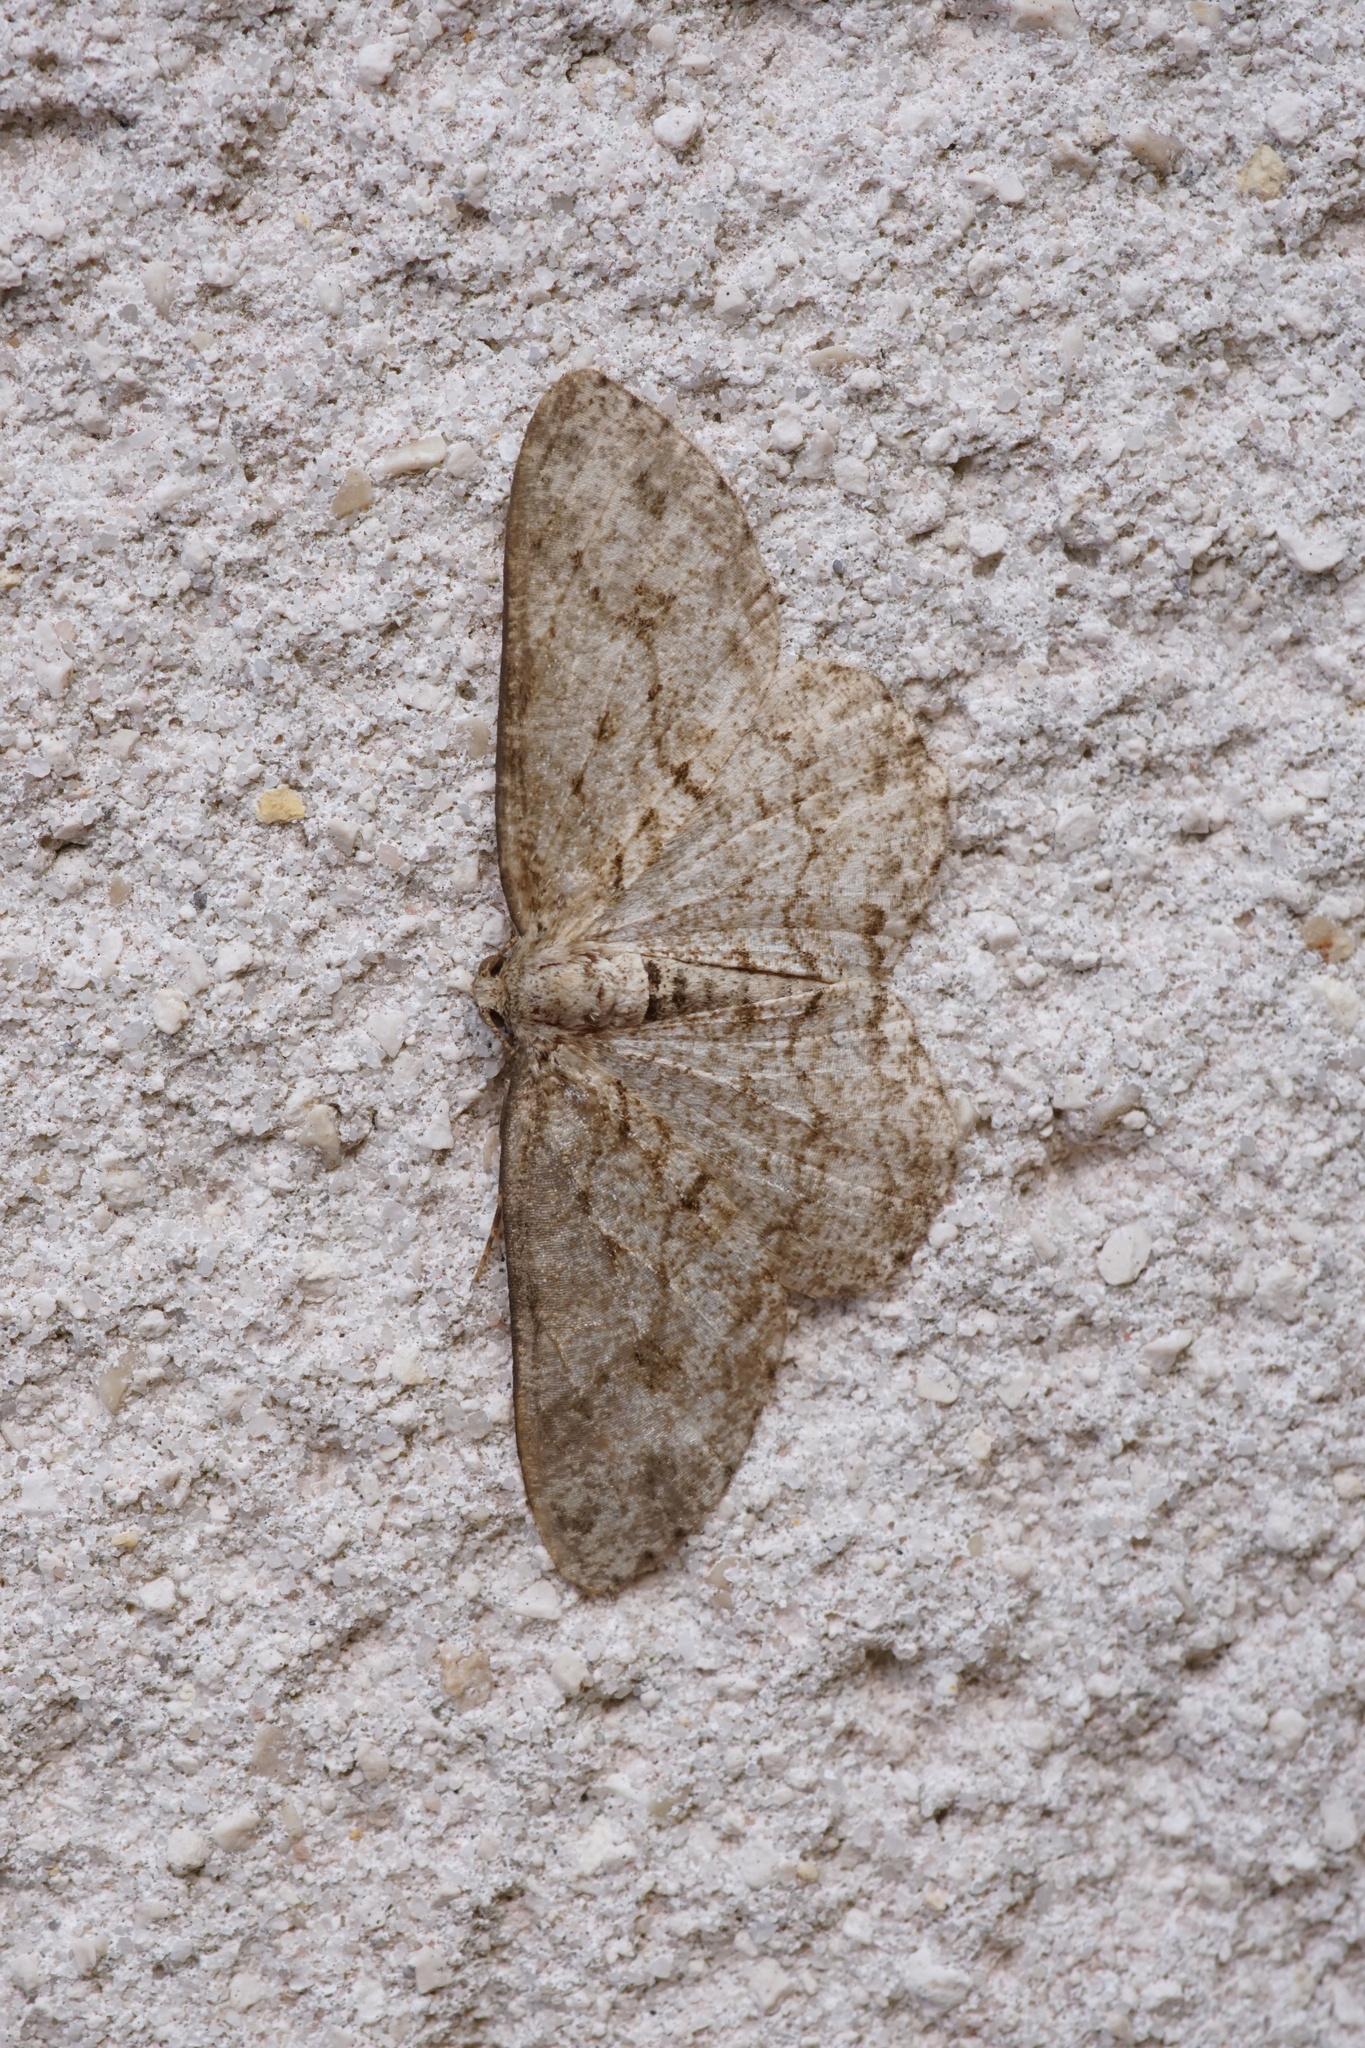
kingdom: Animalia
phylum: Arthropoda
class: Insecta
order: Lepidoptera
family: Geometridae
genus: Ectropis
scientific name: Ectropis crepuscularia
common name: Engrailed
